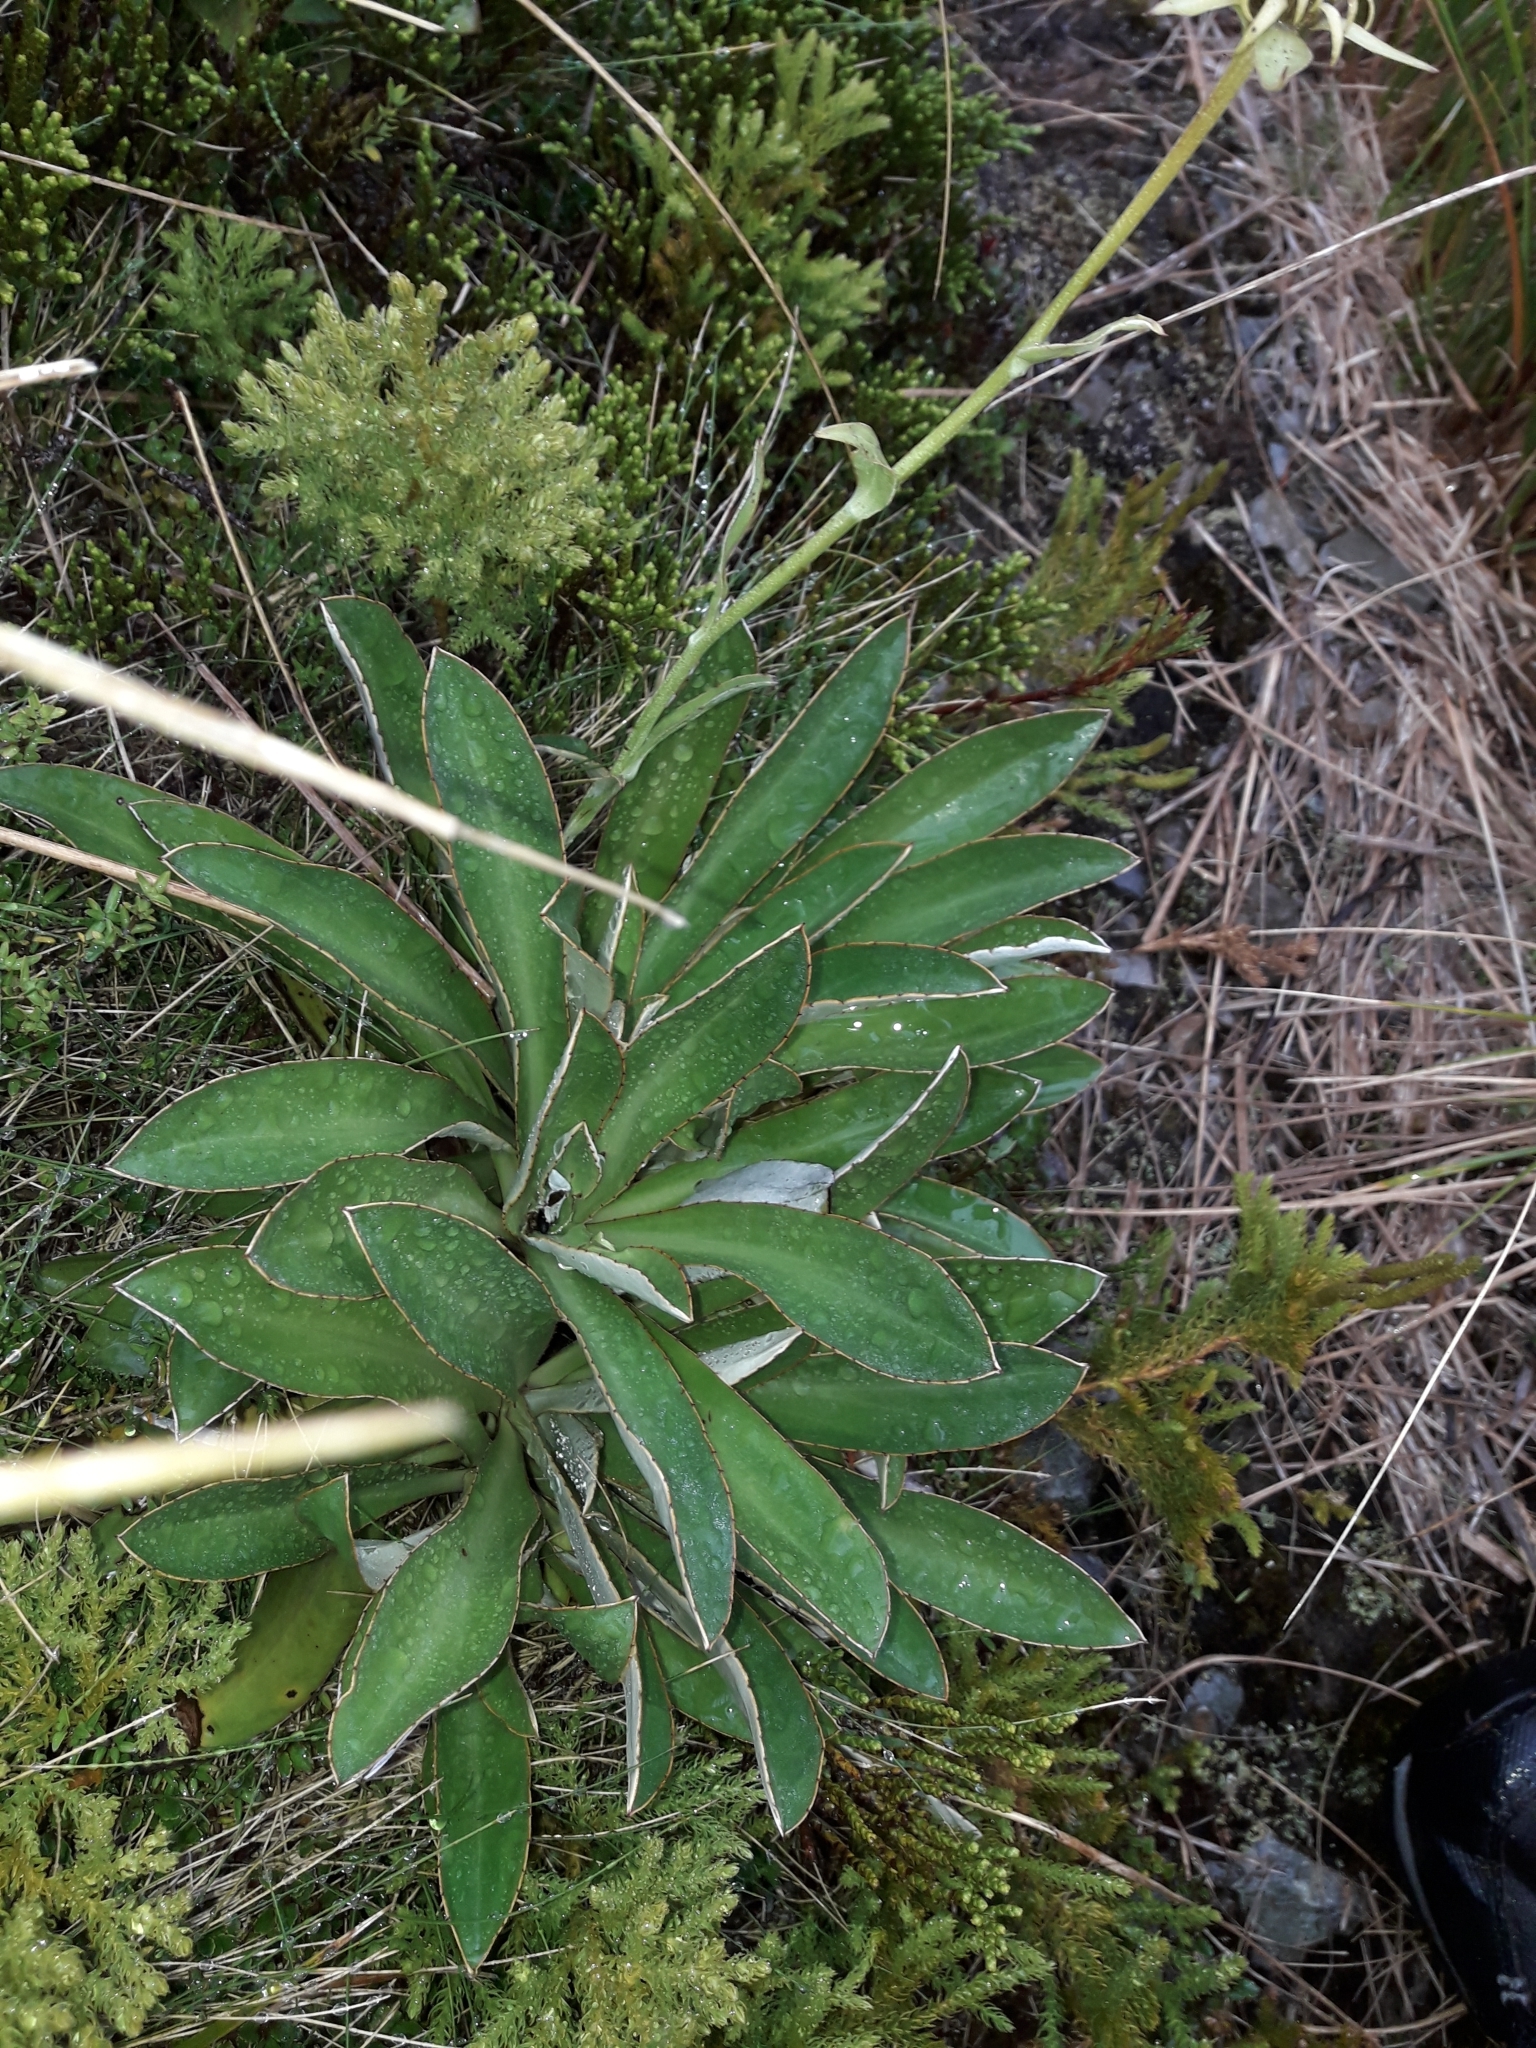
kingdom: Plantae
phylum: Tracheophyta
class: Magnoliopsida
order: Asterales
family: Asteraceae
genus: Celmisia
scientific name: Celmisia dallii
